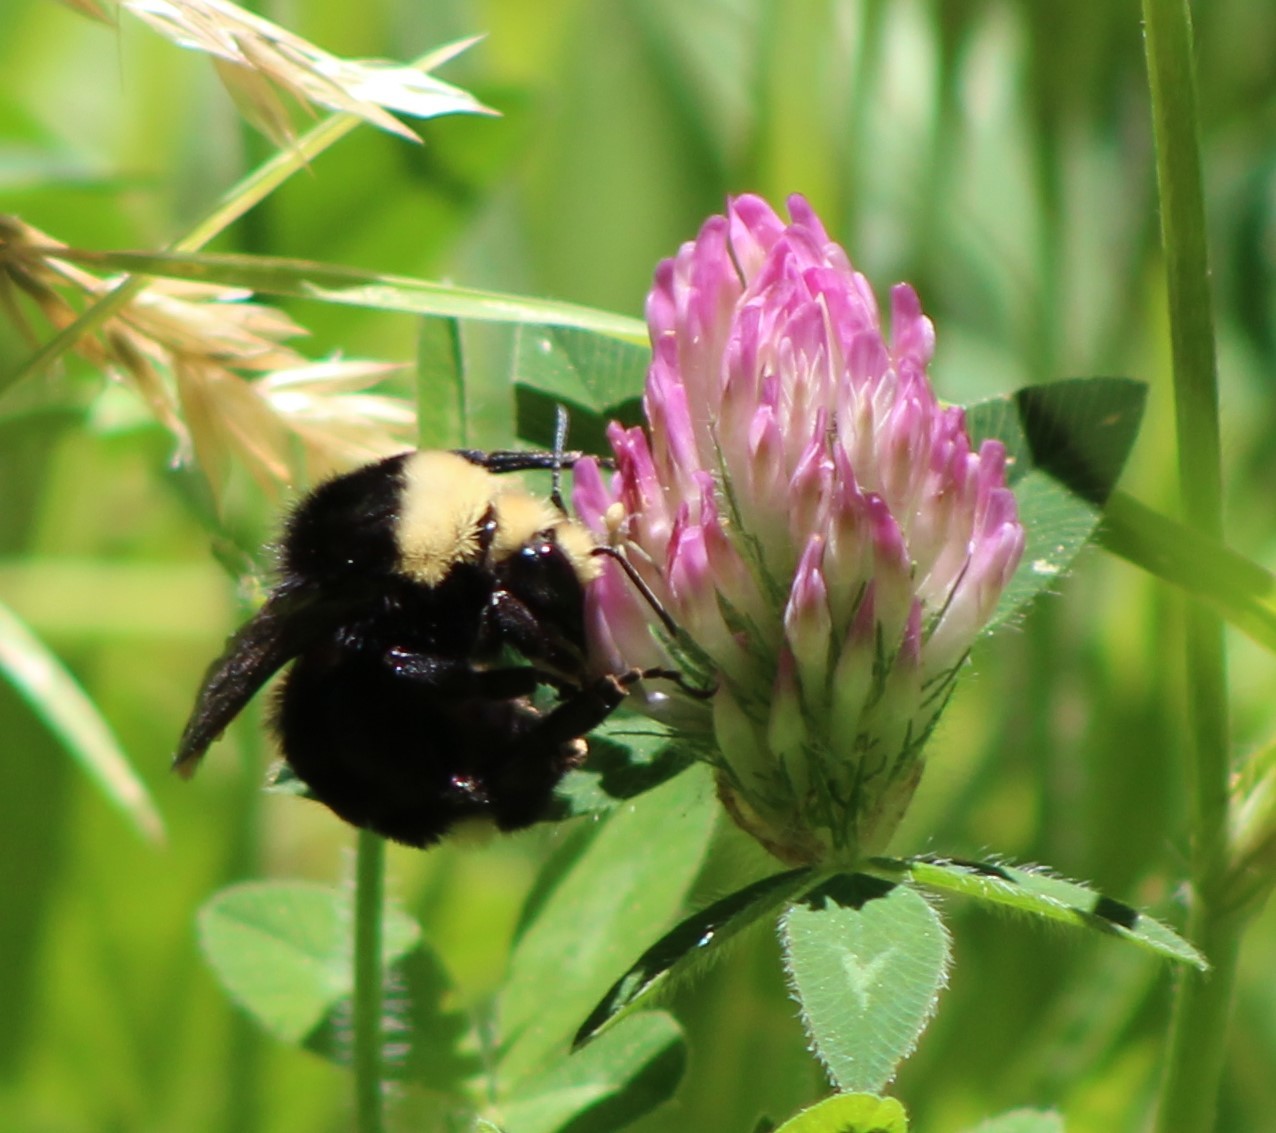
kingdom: Animalia
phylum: Arthropoda
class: Insecta
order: Hymenoptera
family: Apidae
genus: Bombus
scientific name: Bombus vosnesenskii
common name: Vosnesensky bumble bee
